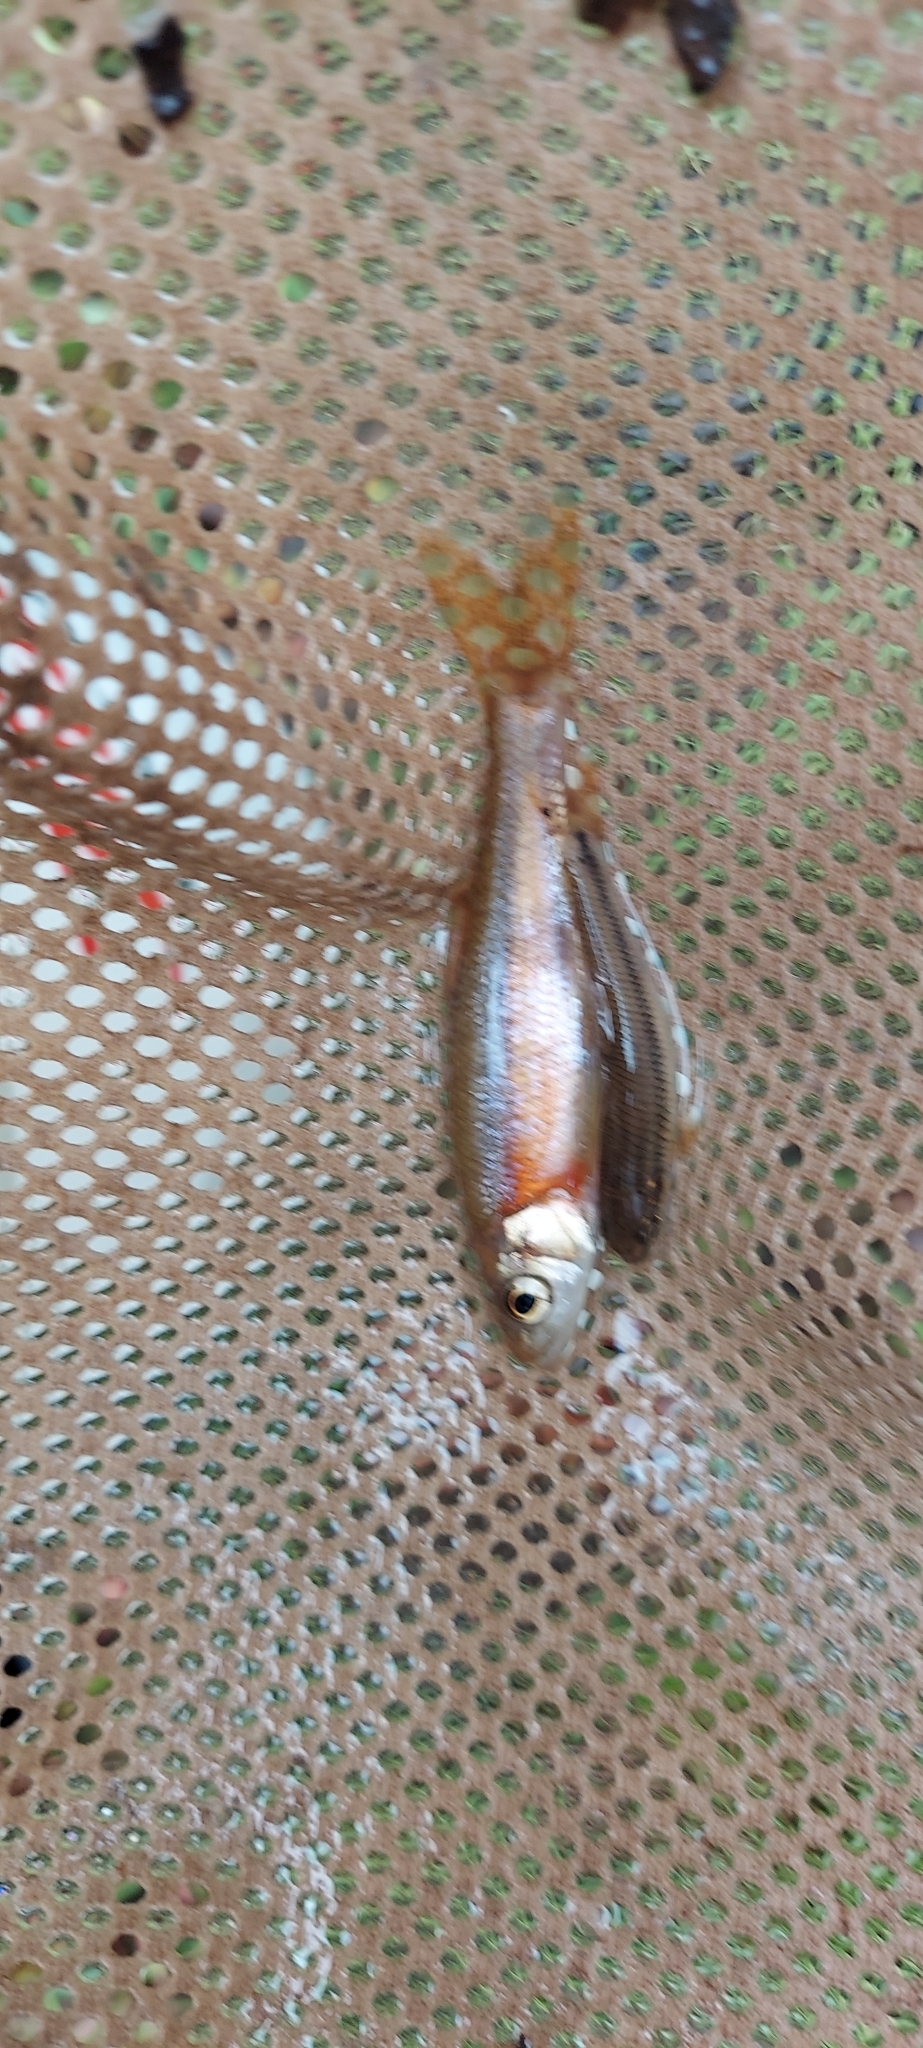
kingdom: Animalia
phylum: Chordata
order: Cypriniformes
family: Cyprinidae
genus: Clinostomus
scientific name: Clinostomus funduloides
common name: Rosyside dace
